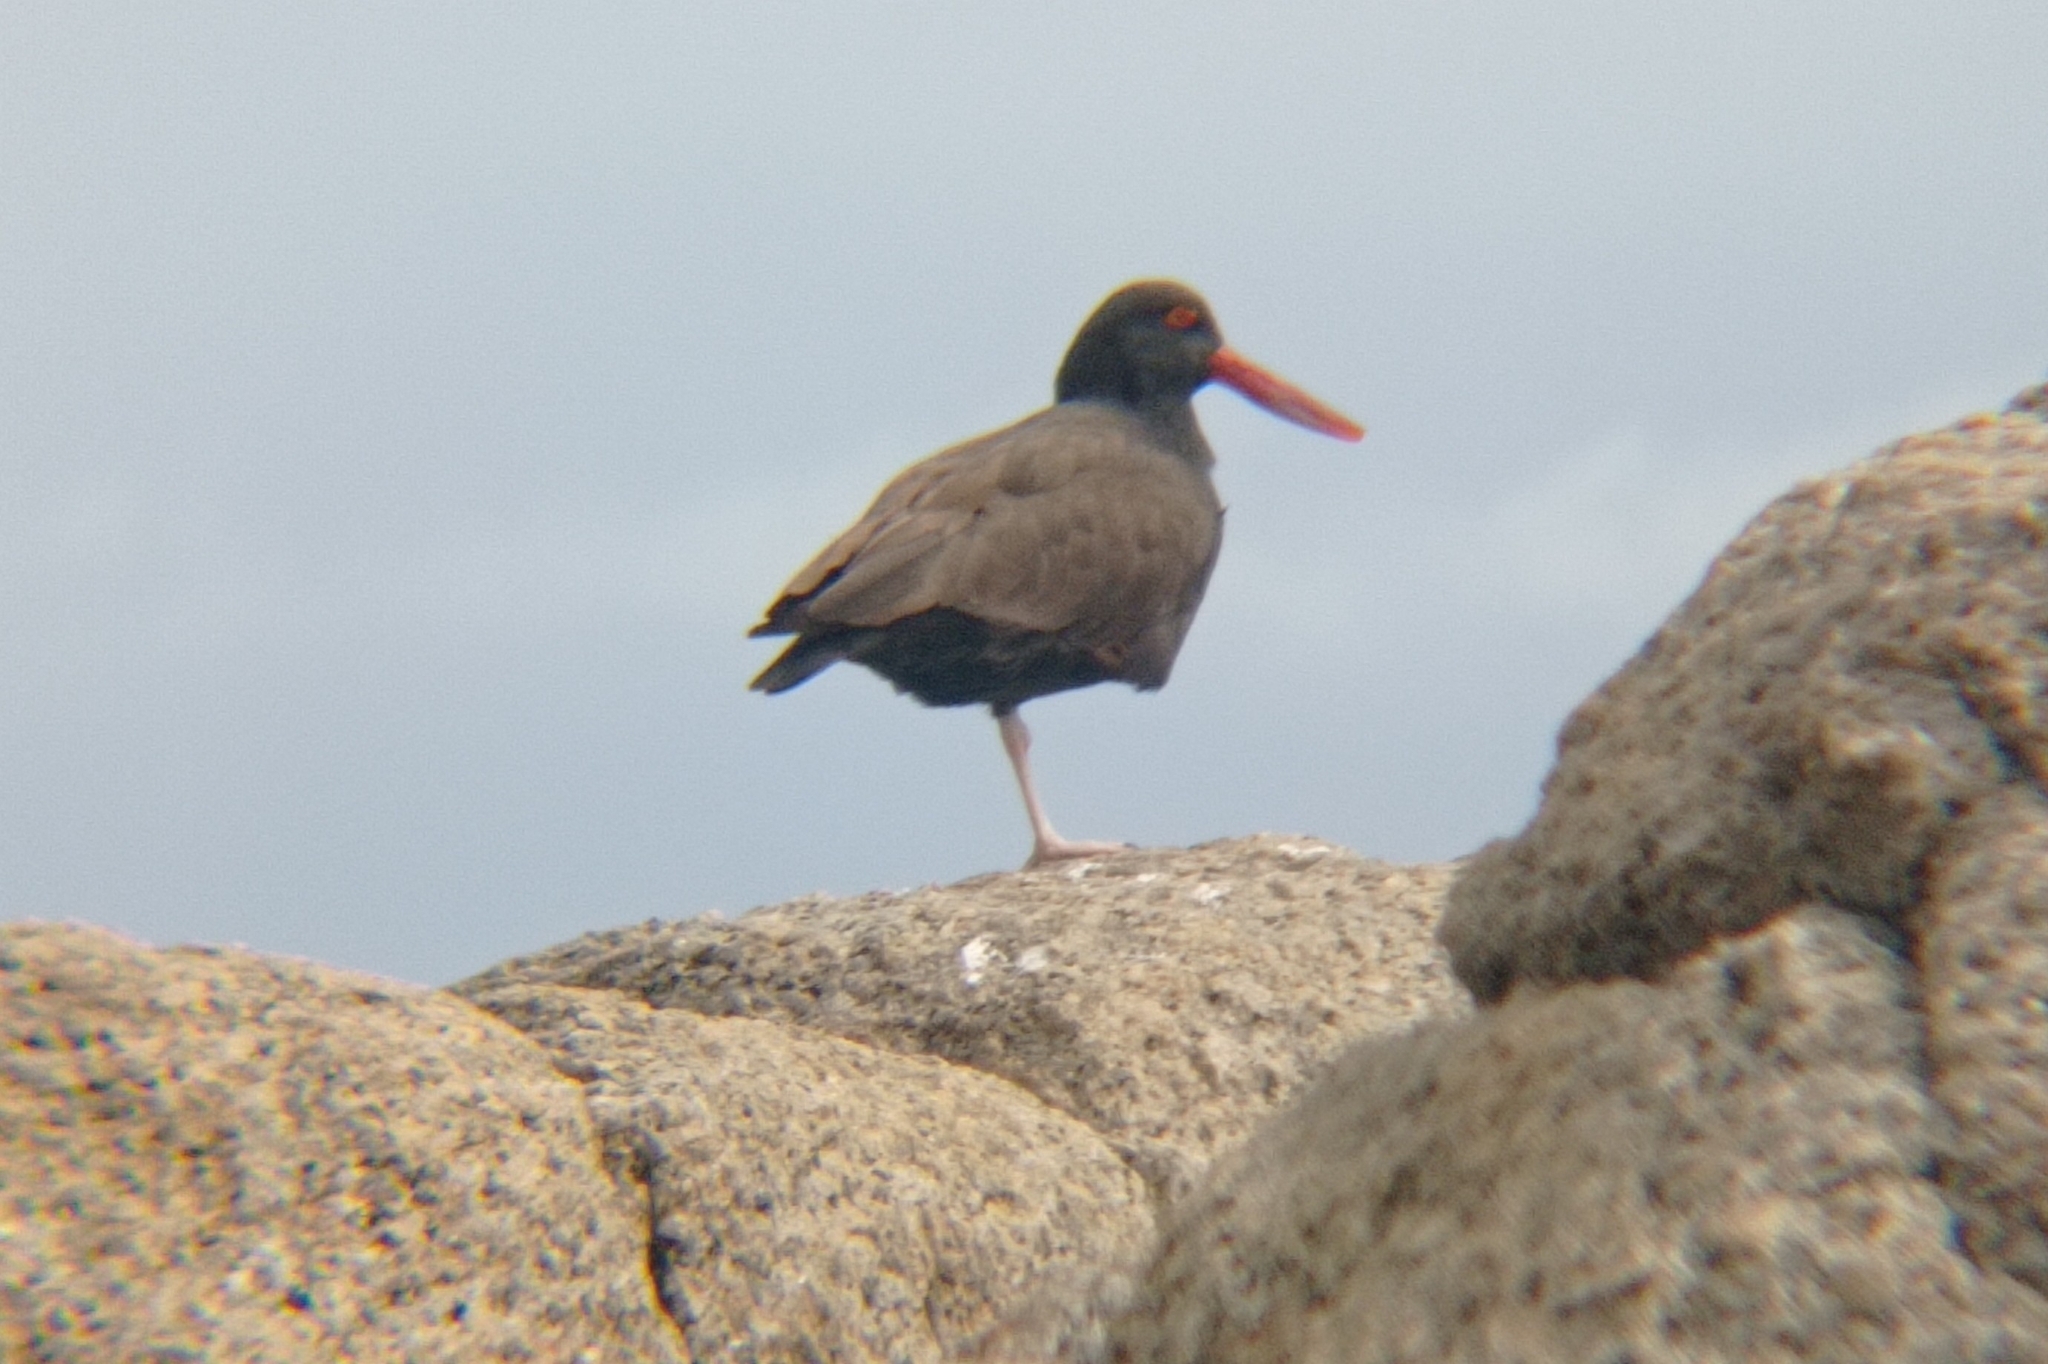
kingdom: Animalia
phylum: Chordata
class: Aves
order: Charadriiformes
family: Haematopodidae
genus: Haematopus
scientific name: Haematopus ater
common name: Blackish oystercatcher
